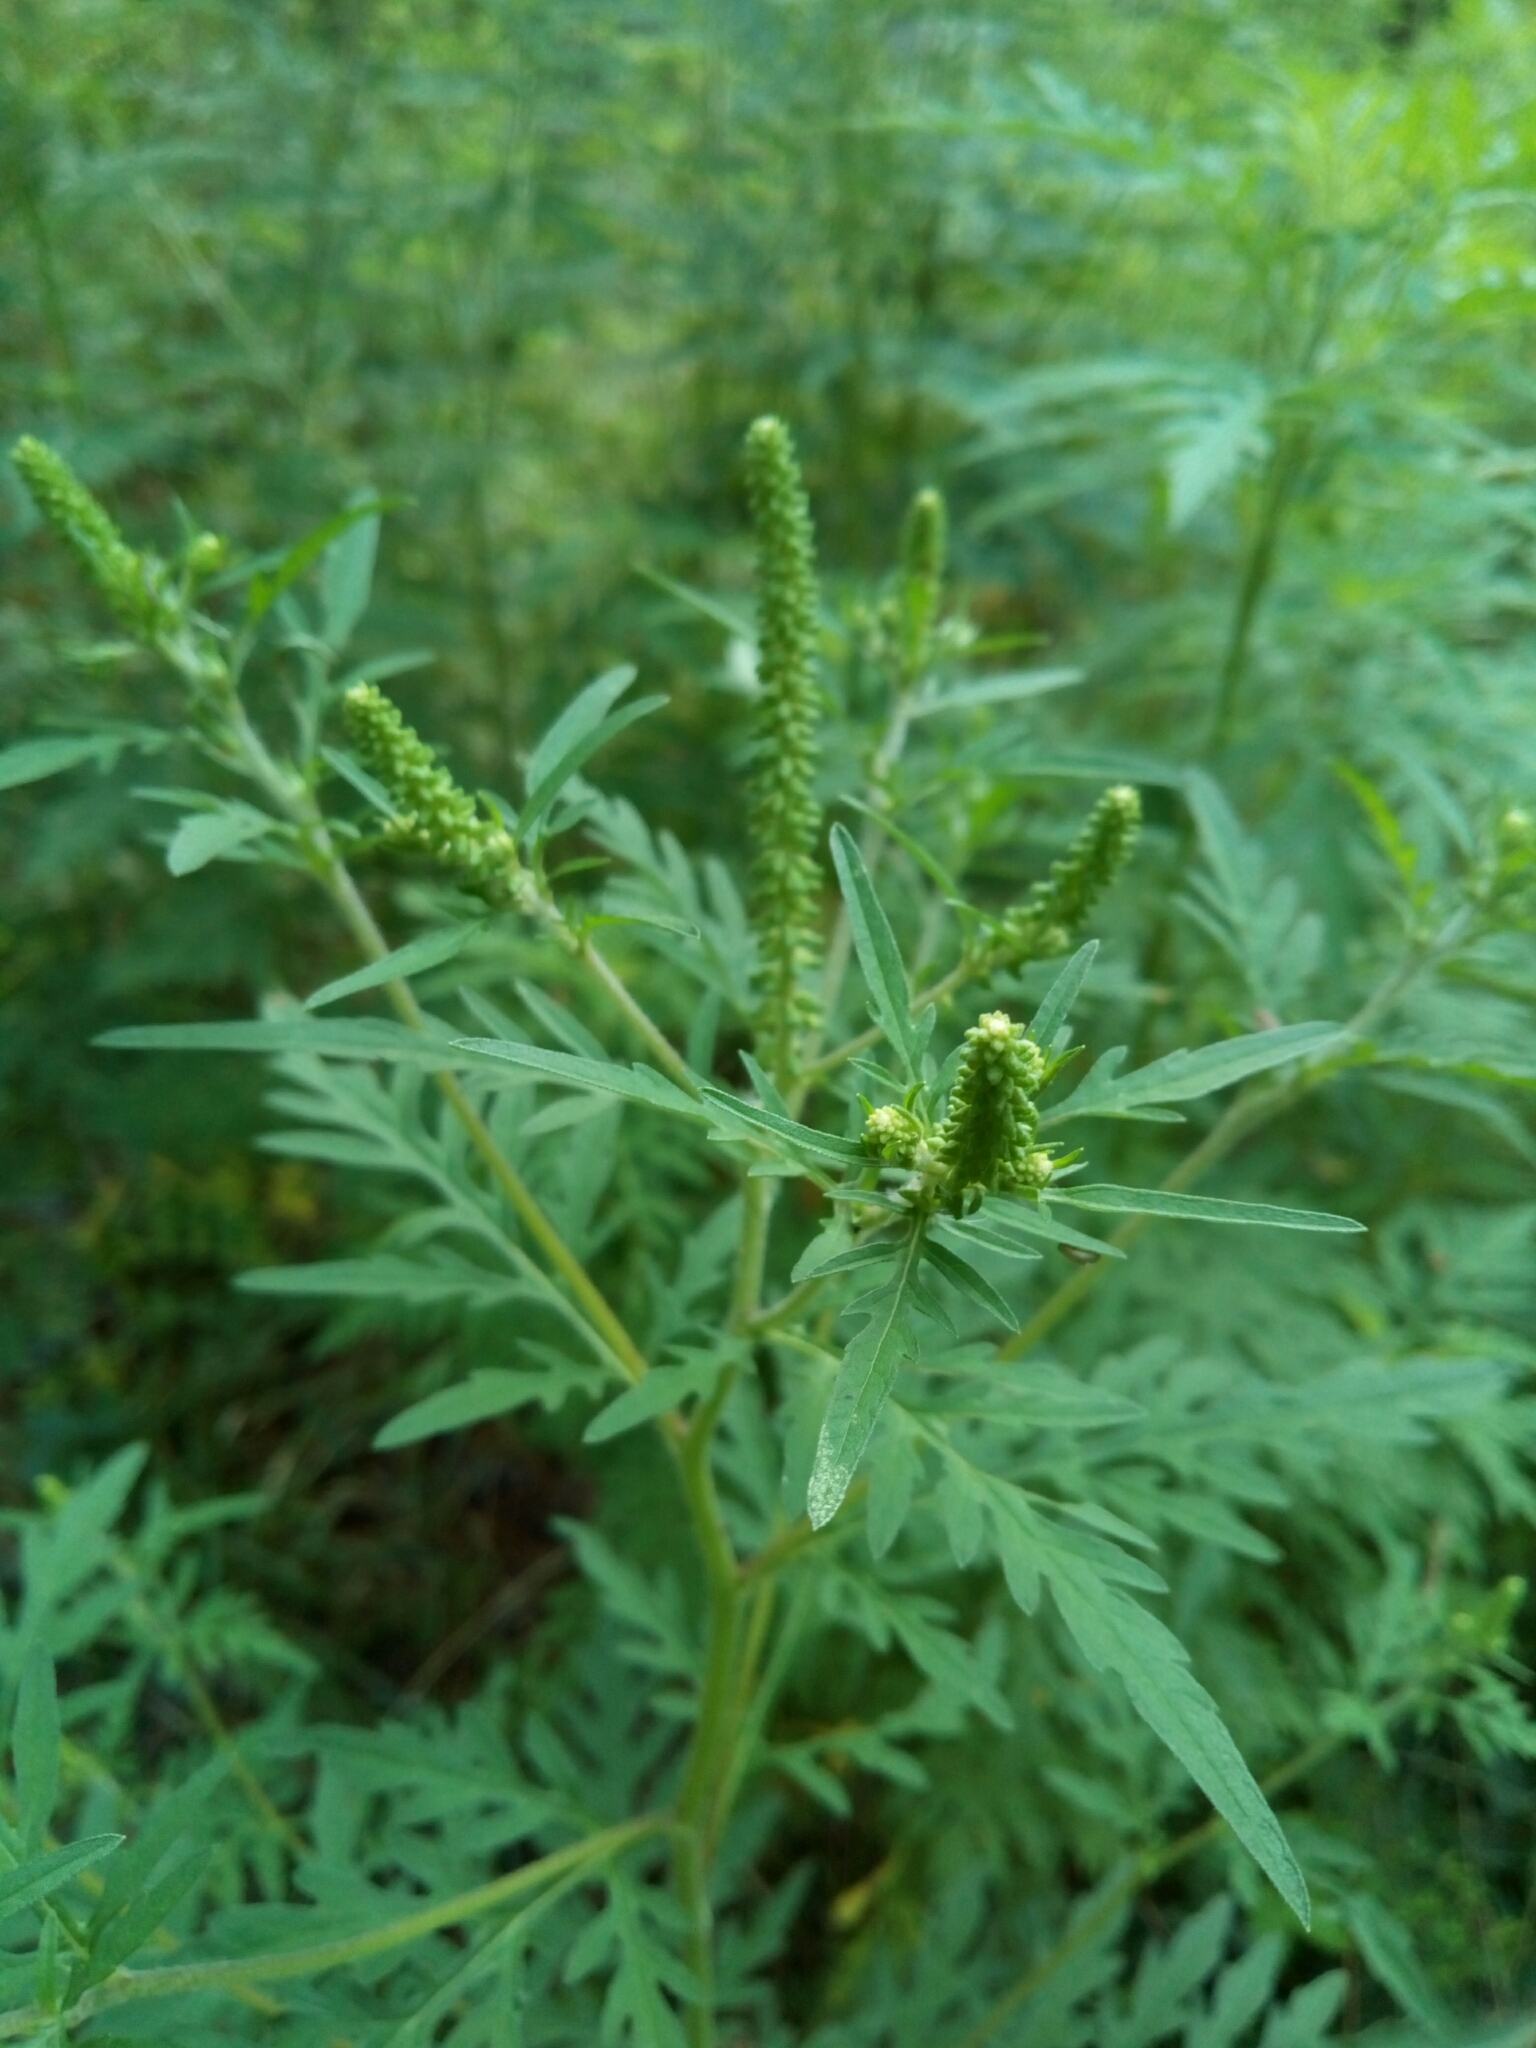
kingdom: Plantae
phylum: Tracheophyta
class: Magnoliopsida
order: Asterales
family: Asteraceae
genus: Ambrosia
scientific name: Ambrosia artemisiifolia
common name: Annual ragweed
